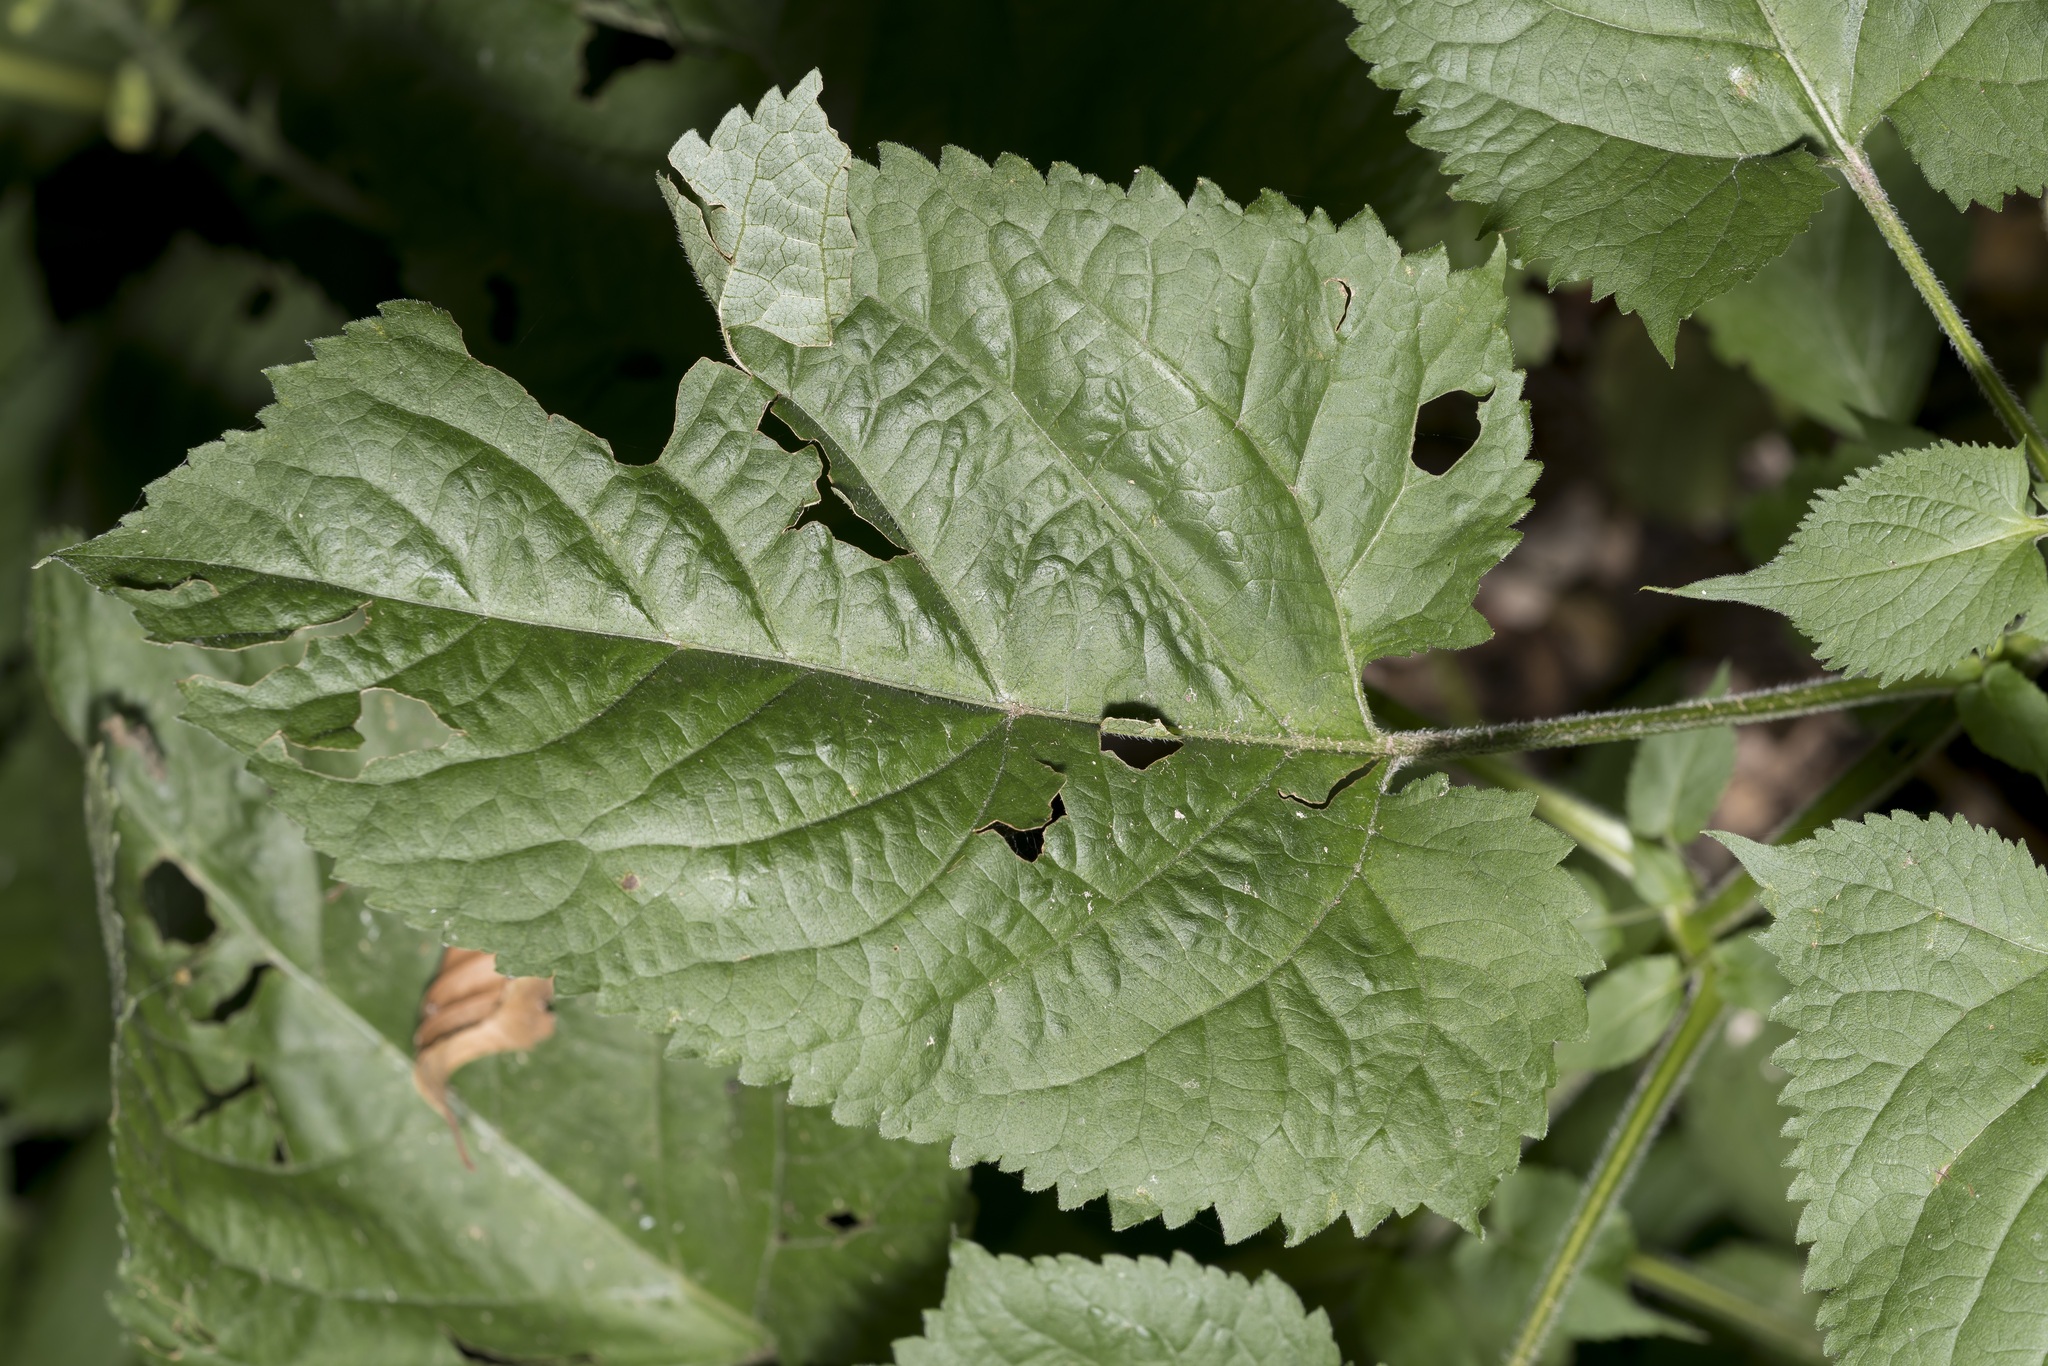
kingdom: Plantae
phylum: Tracheophyta
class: Magnoliopsida
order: Lamiales
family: Lamiaceae
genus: Salvia
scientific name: Salvia glutinosa
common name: Sticky clary
